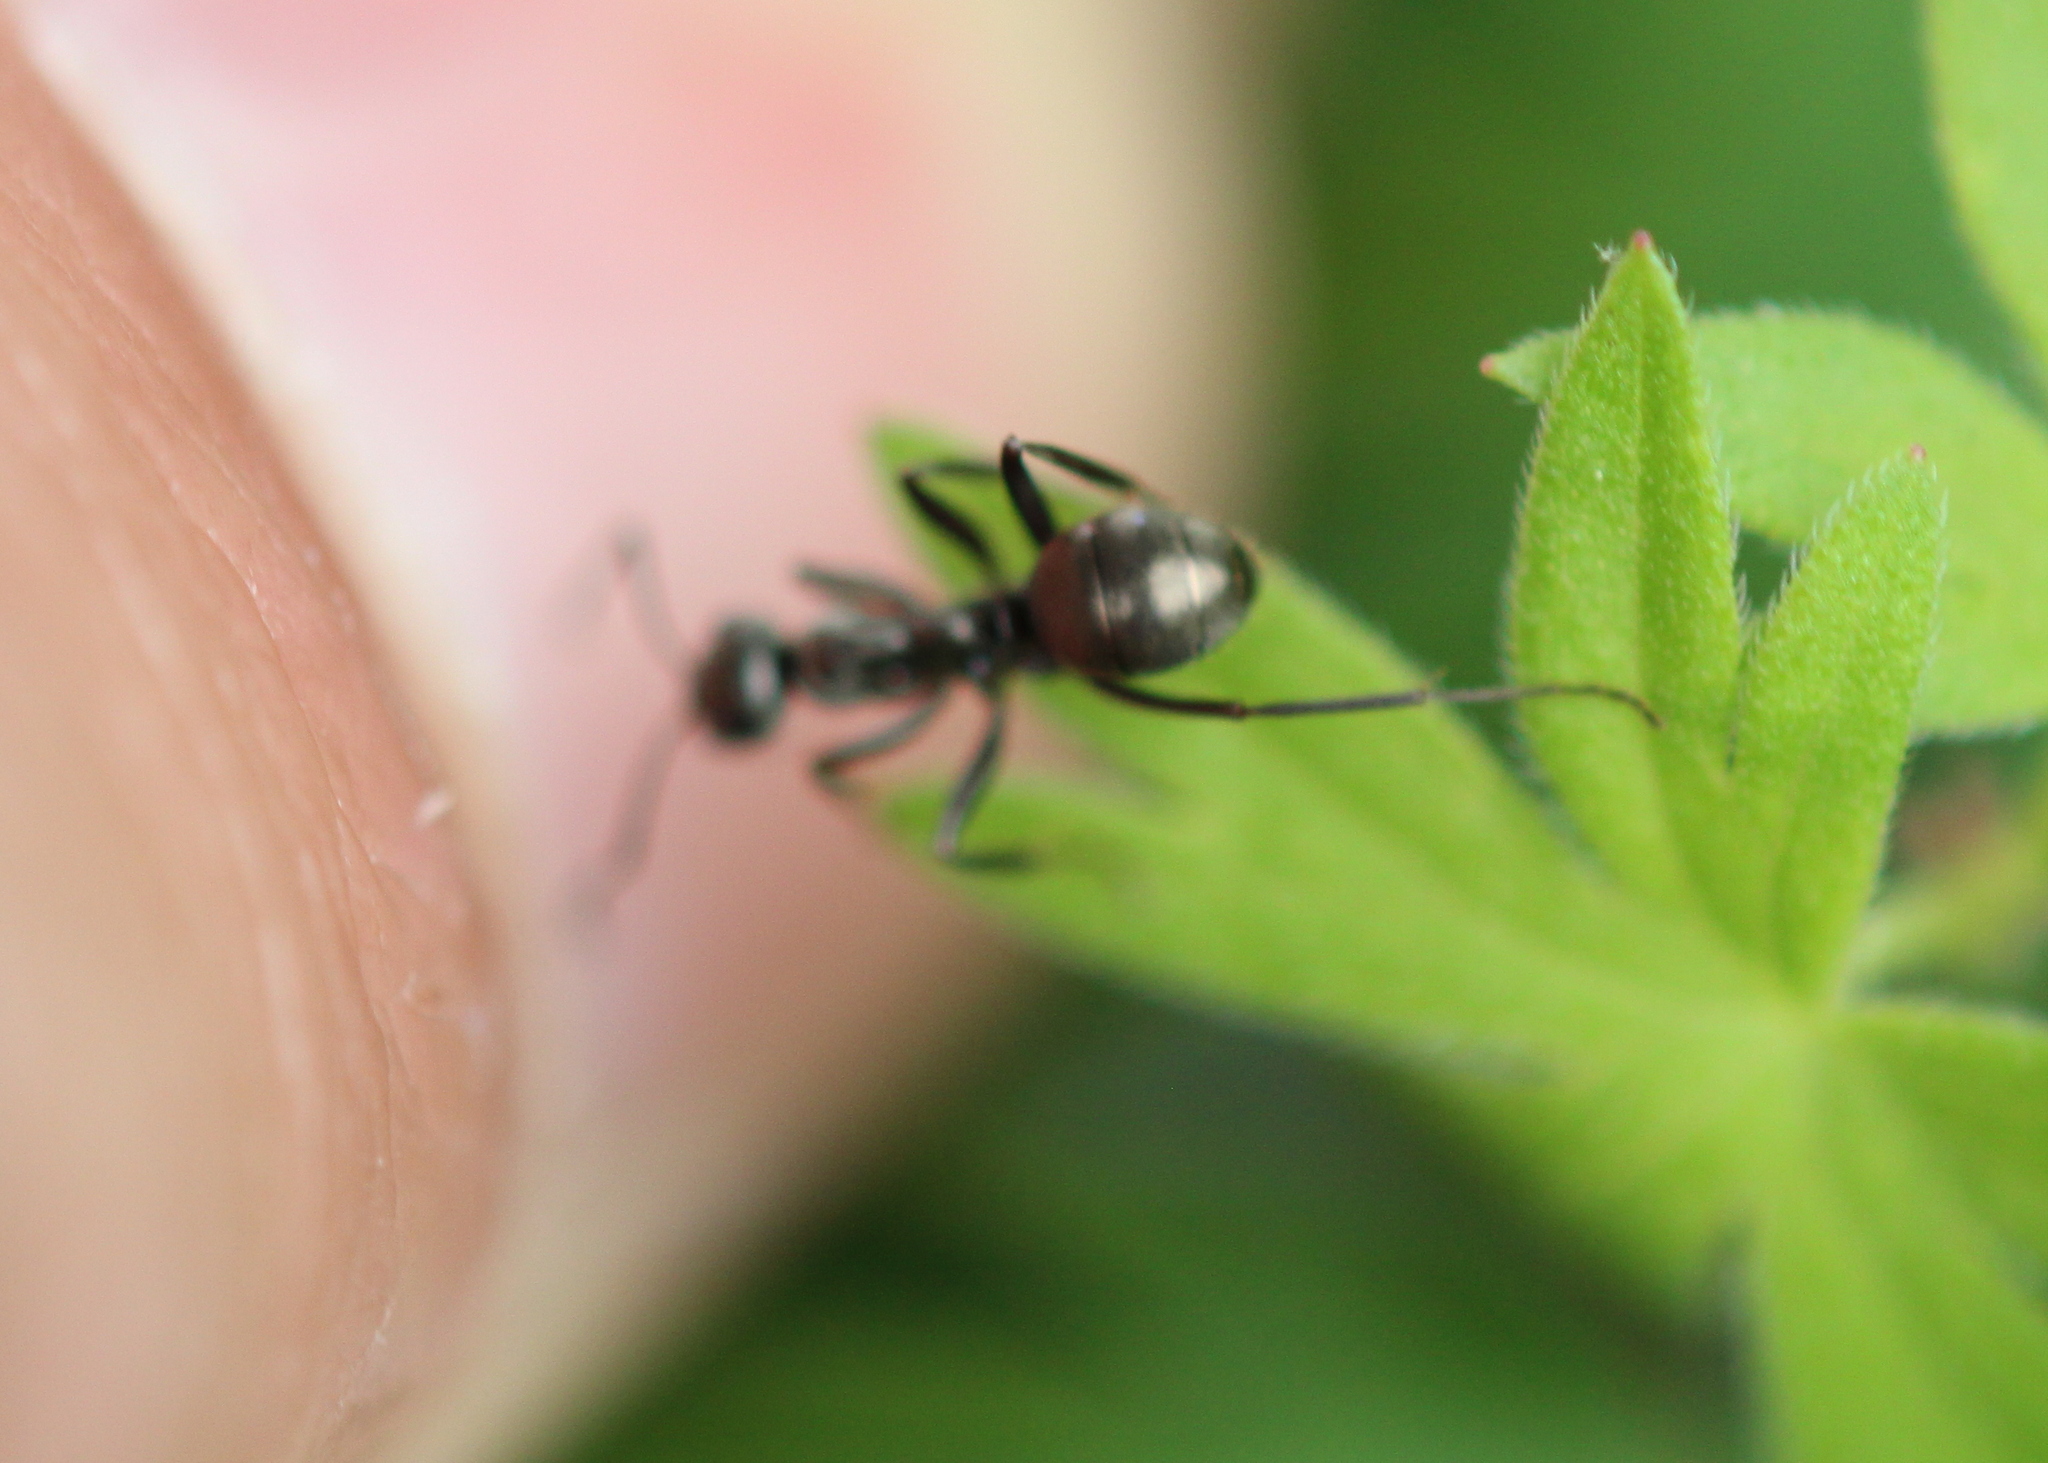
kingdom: Animalia
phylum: Arthropoda
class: Insecta
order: Hymenoptera
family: Formicidae
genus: Formica
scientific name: Formica
